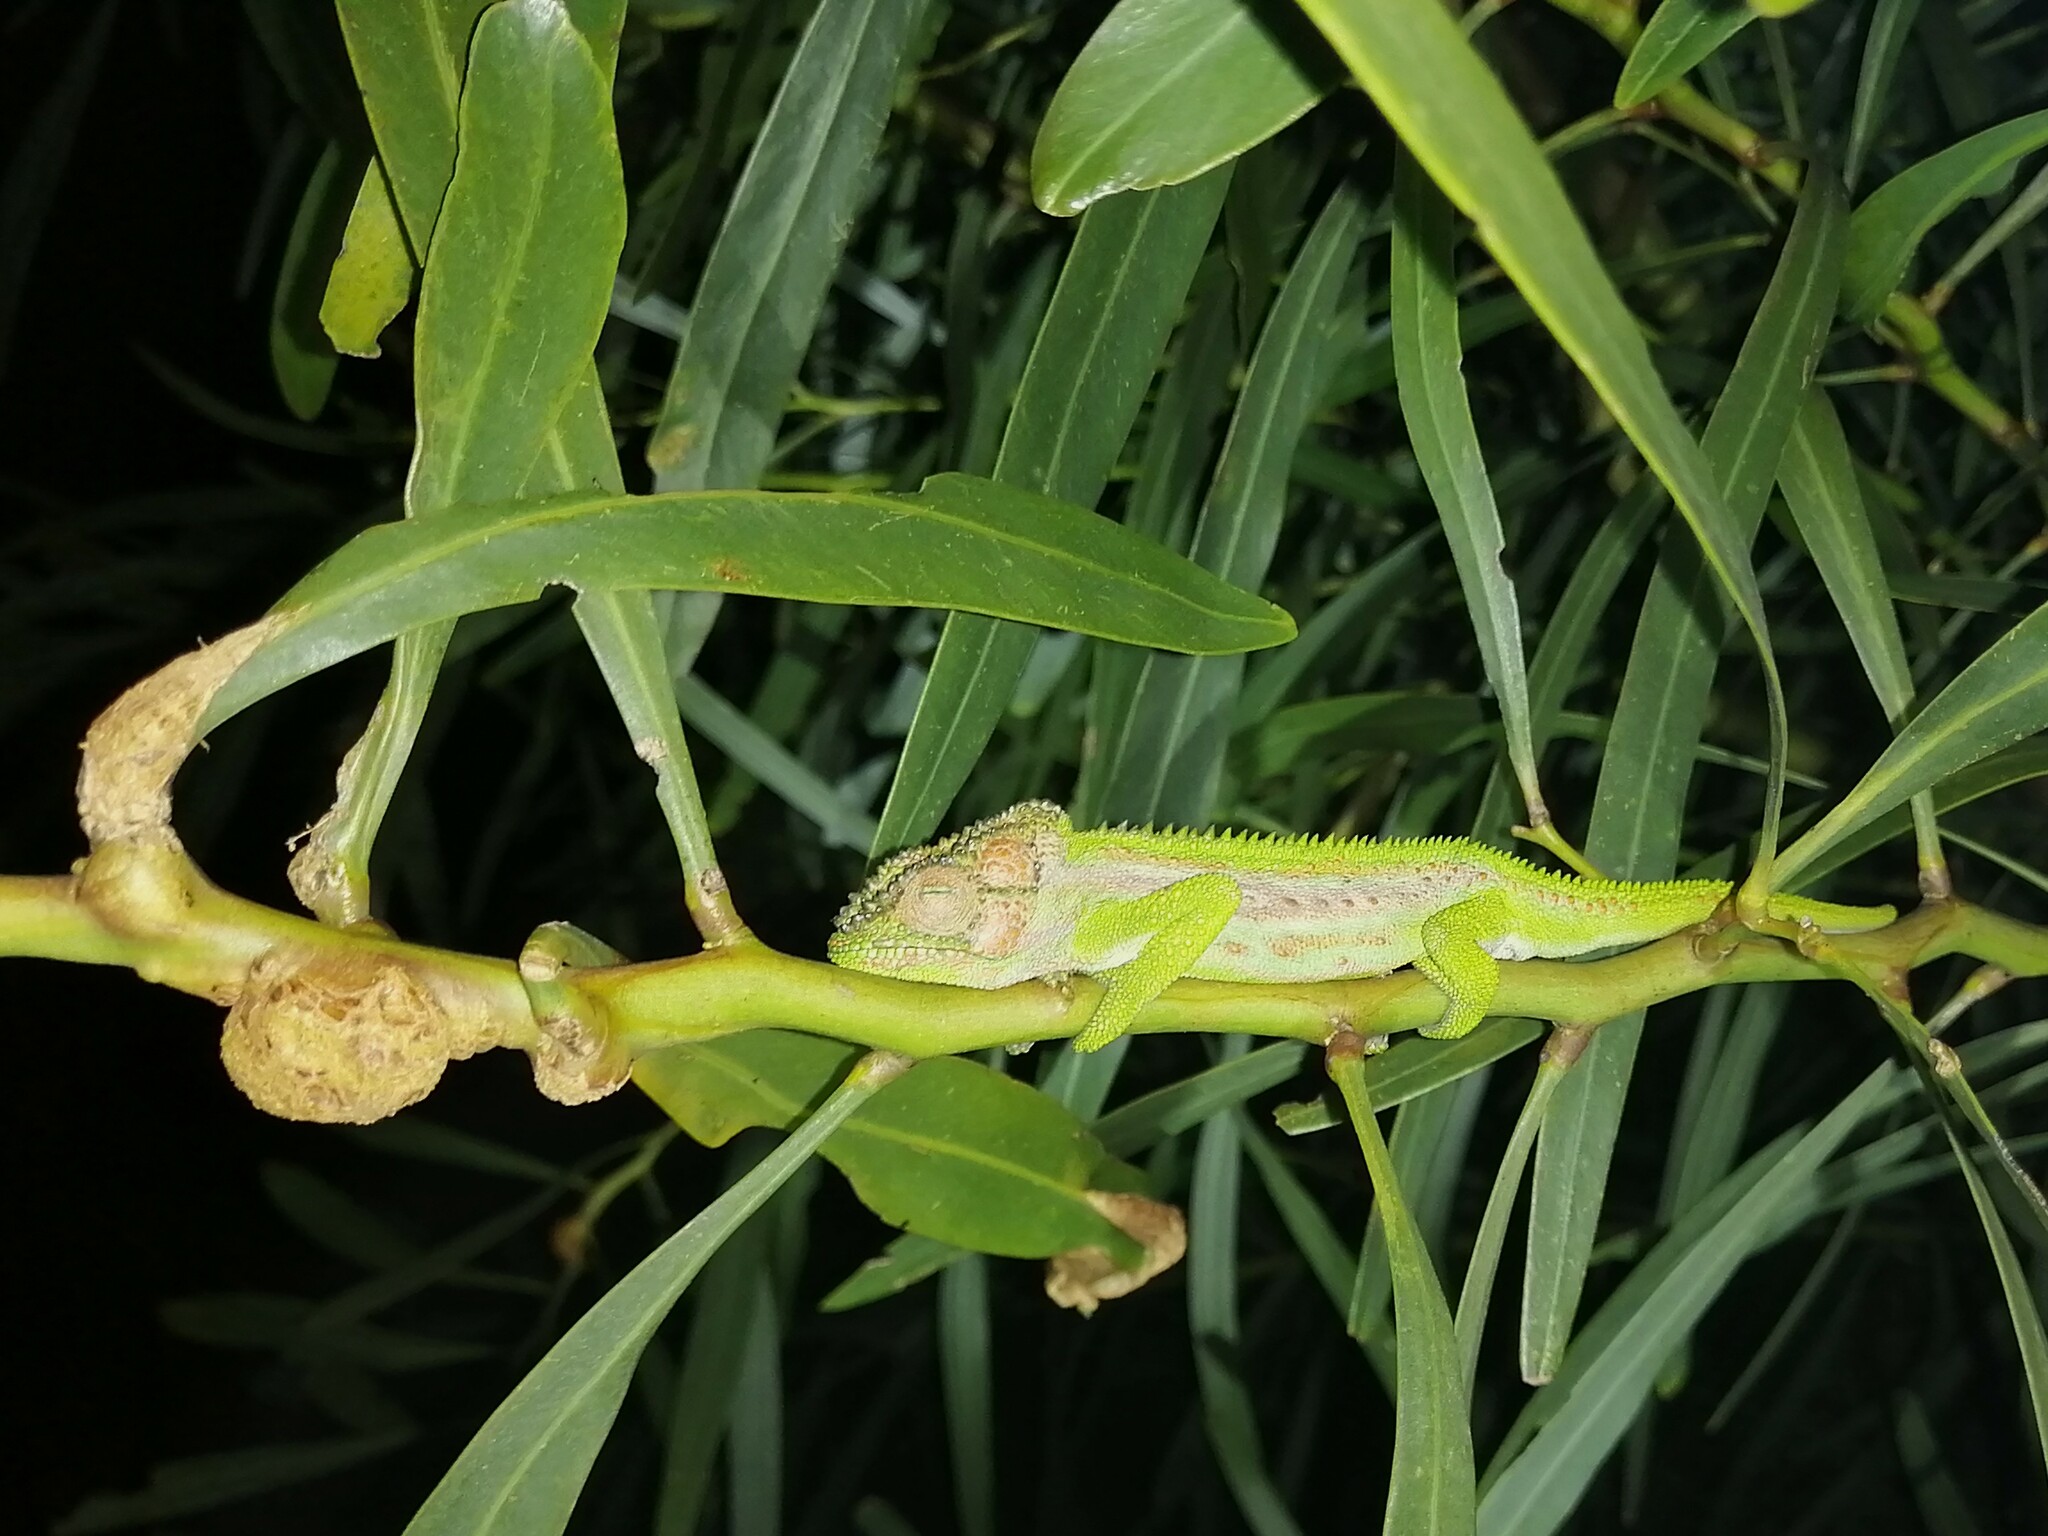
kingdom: Animalia
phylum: Chordata
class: Squamata
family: Chamaeleonidae
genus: Bradypodion
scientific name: Bradypodion pumilum
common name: Cape dwarf chameleon
